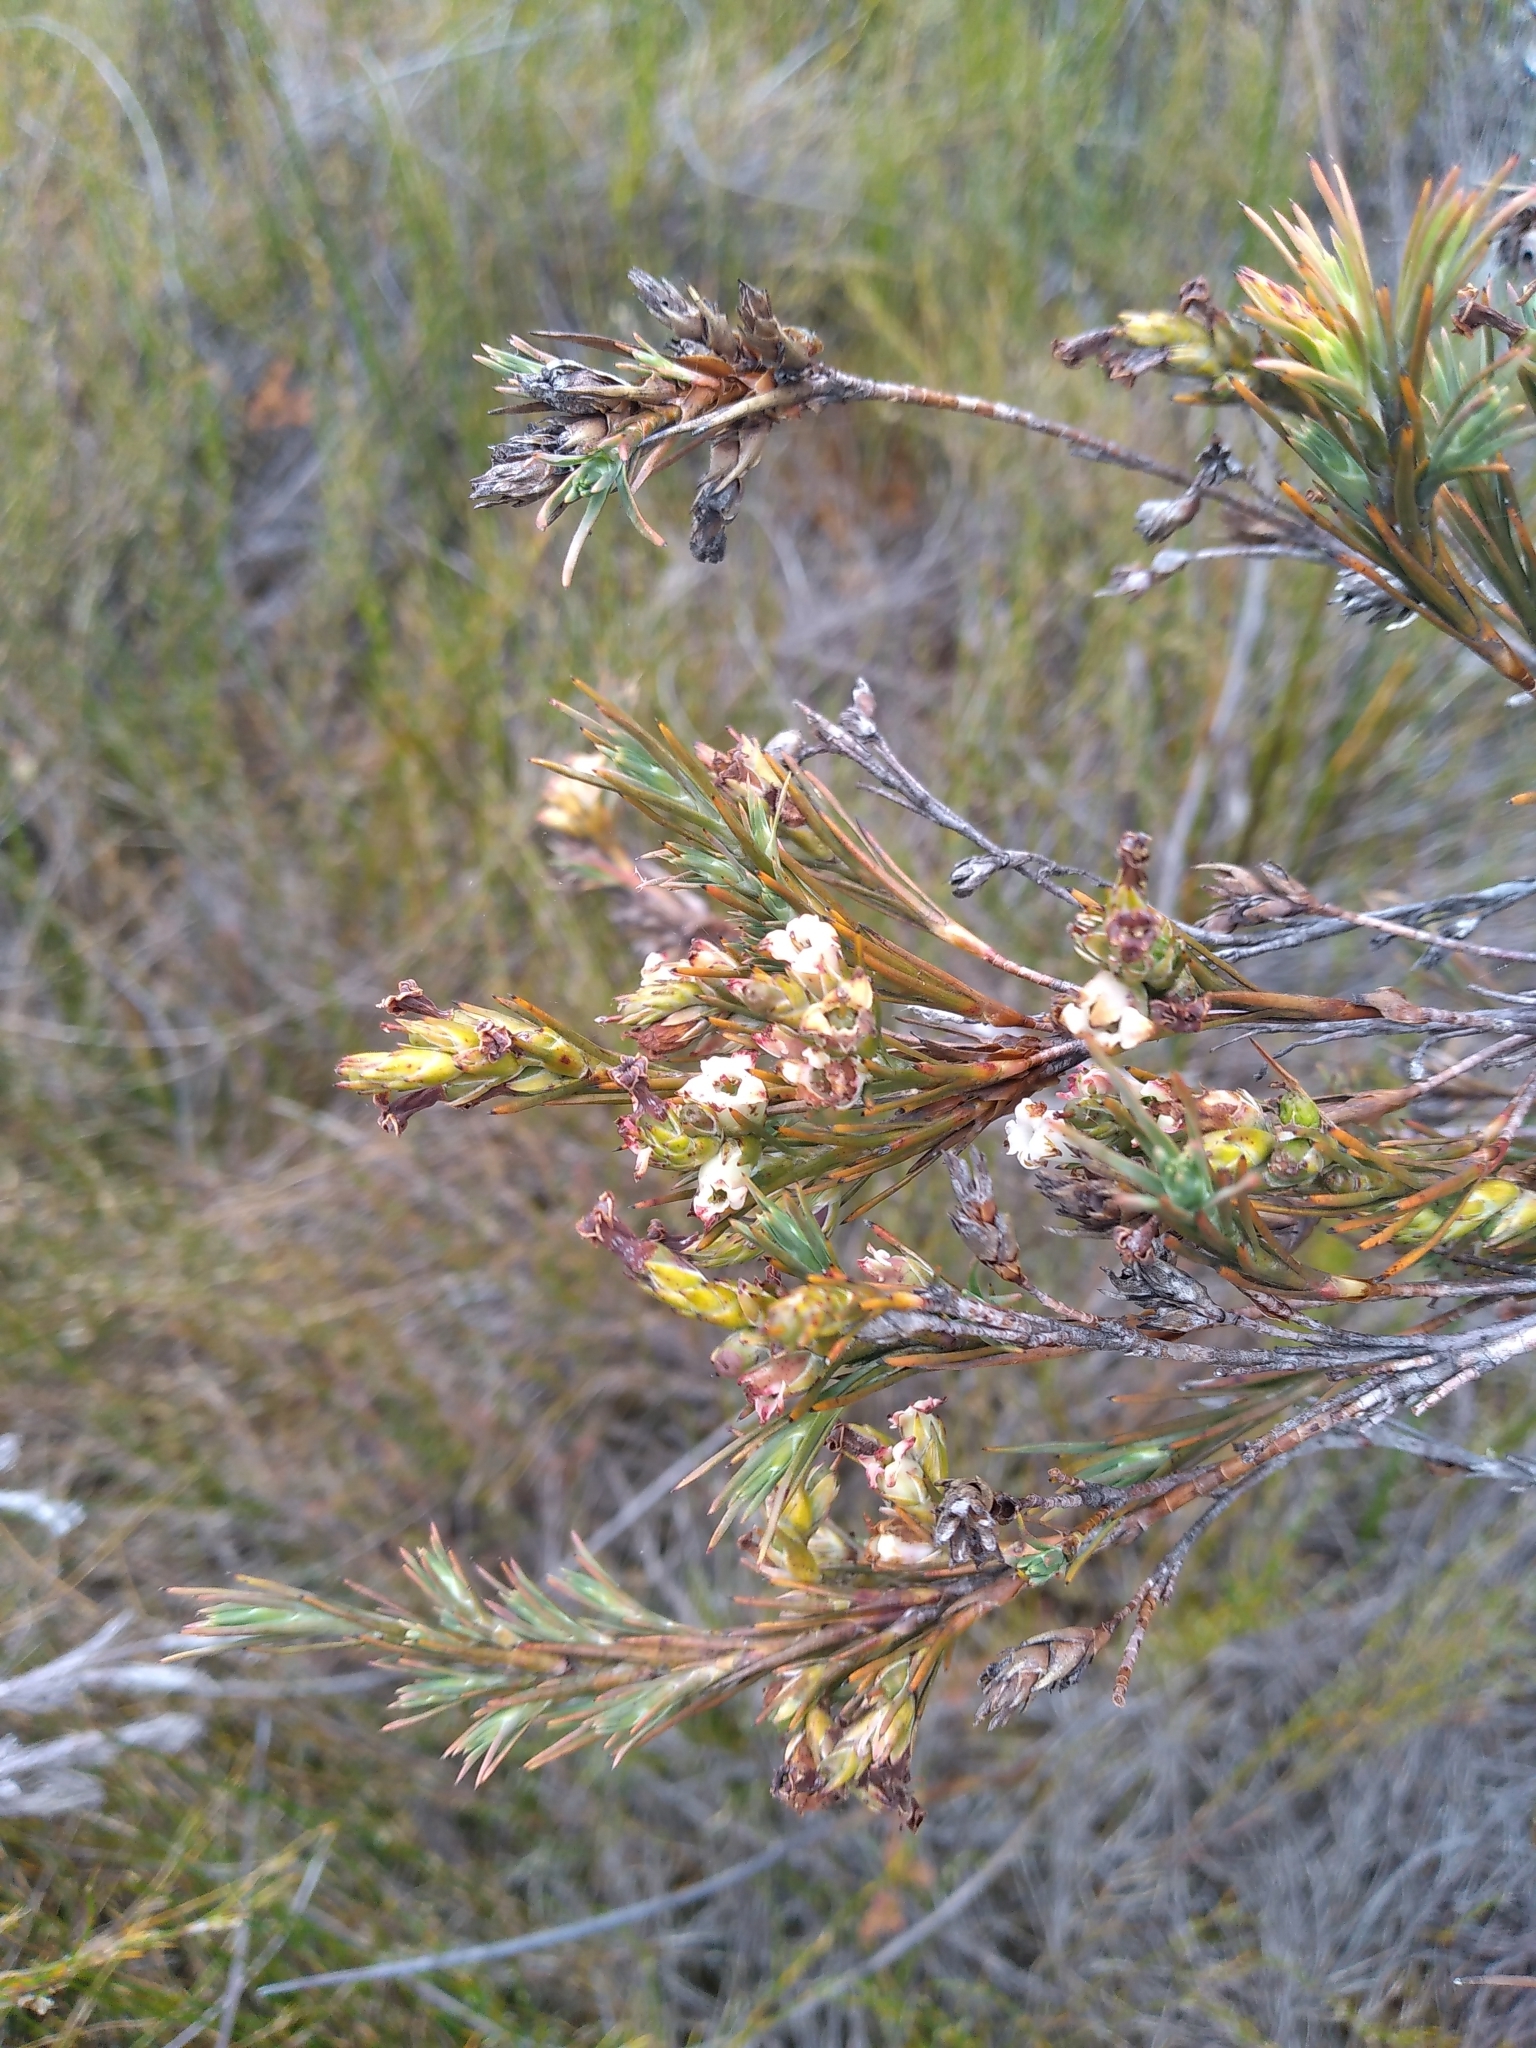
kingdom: Plantae
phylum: Tracheophyta
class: Magnoliopsida
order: Ericales
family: Ericaceae
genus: Dracophyllum
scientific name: Dracophyllum oliveri
